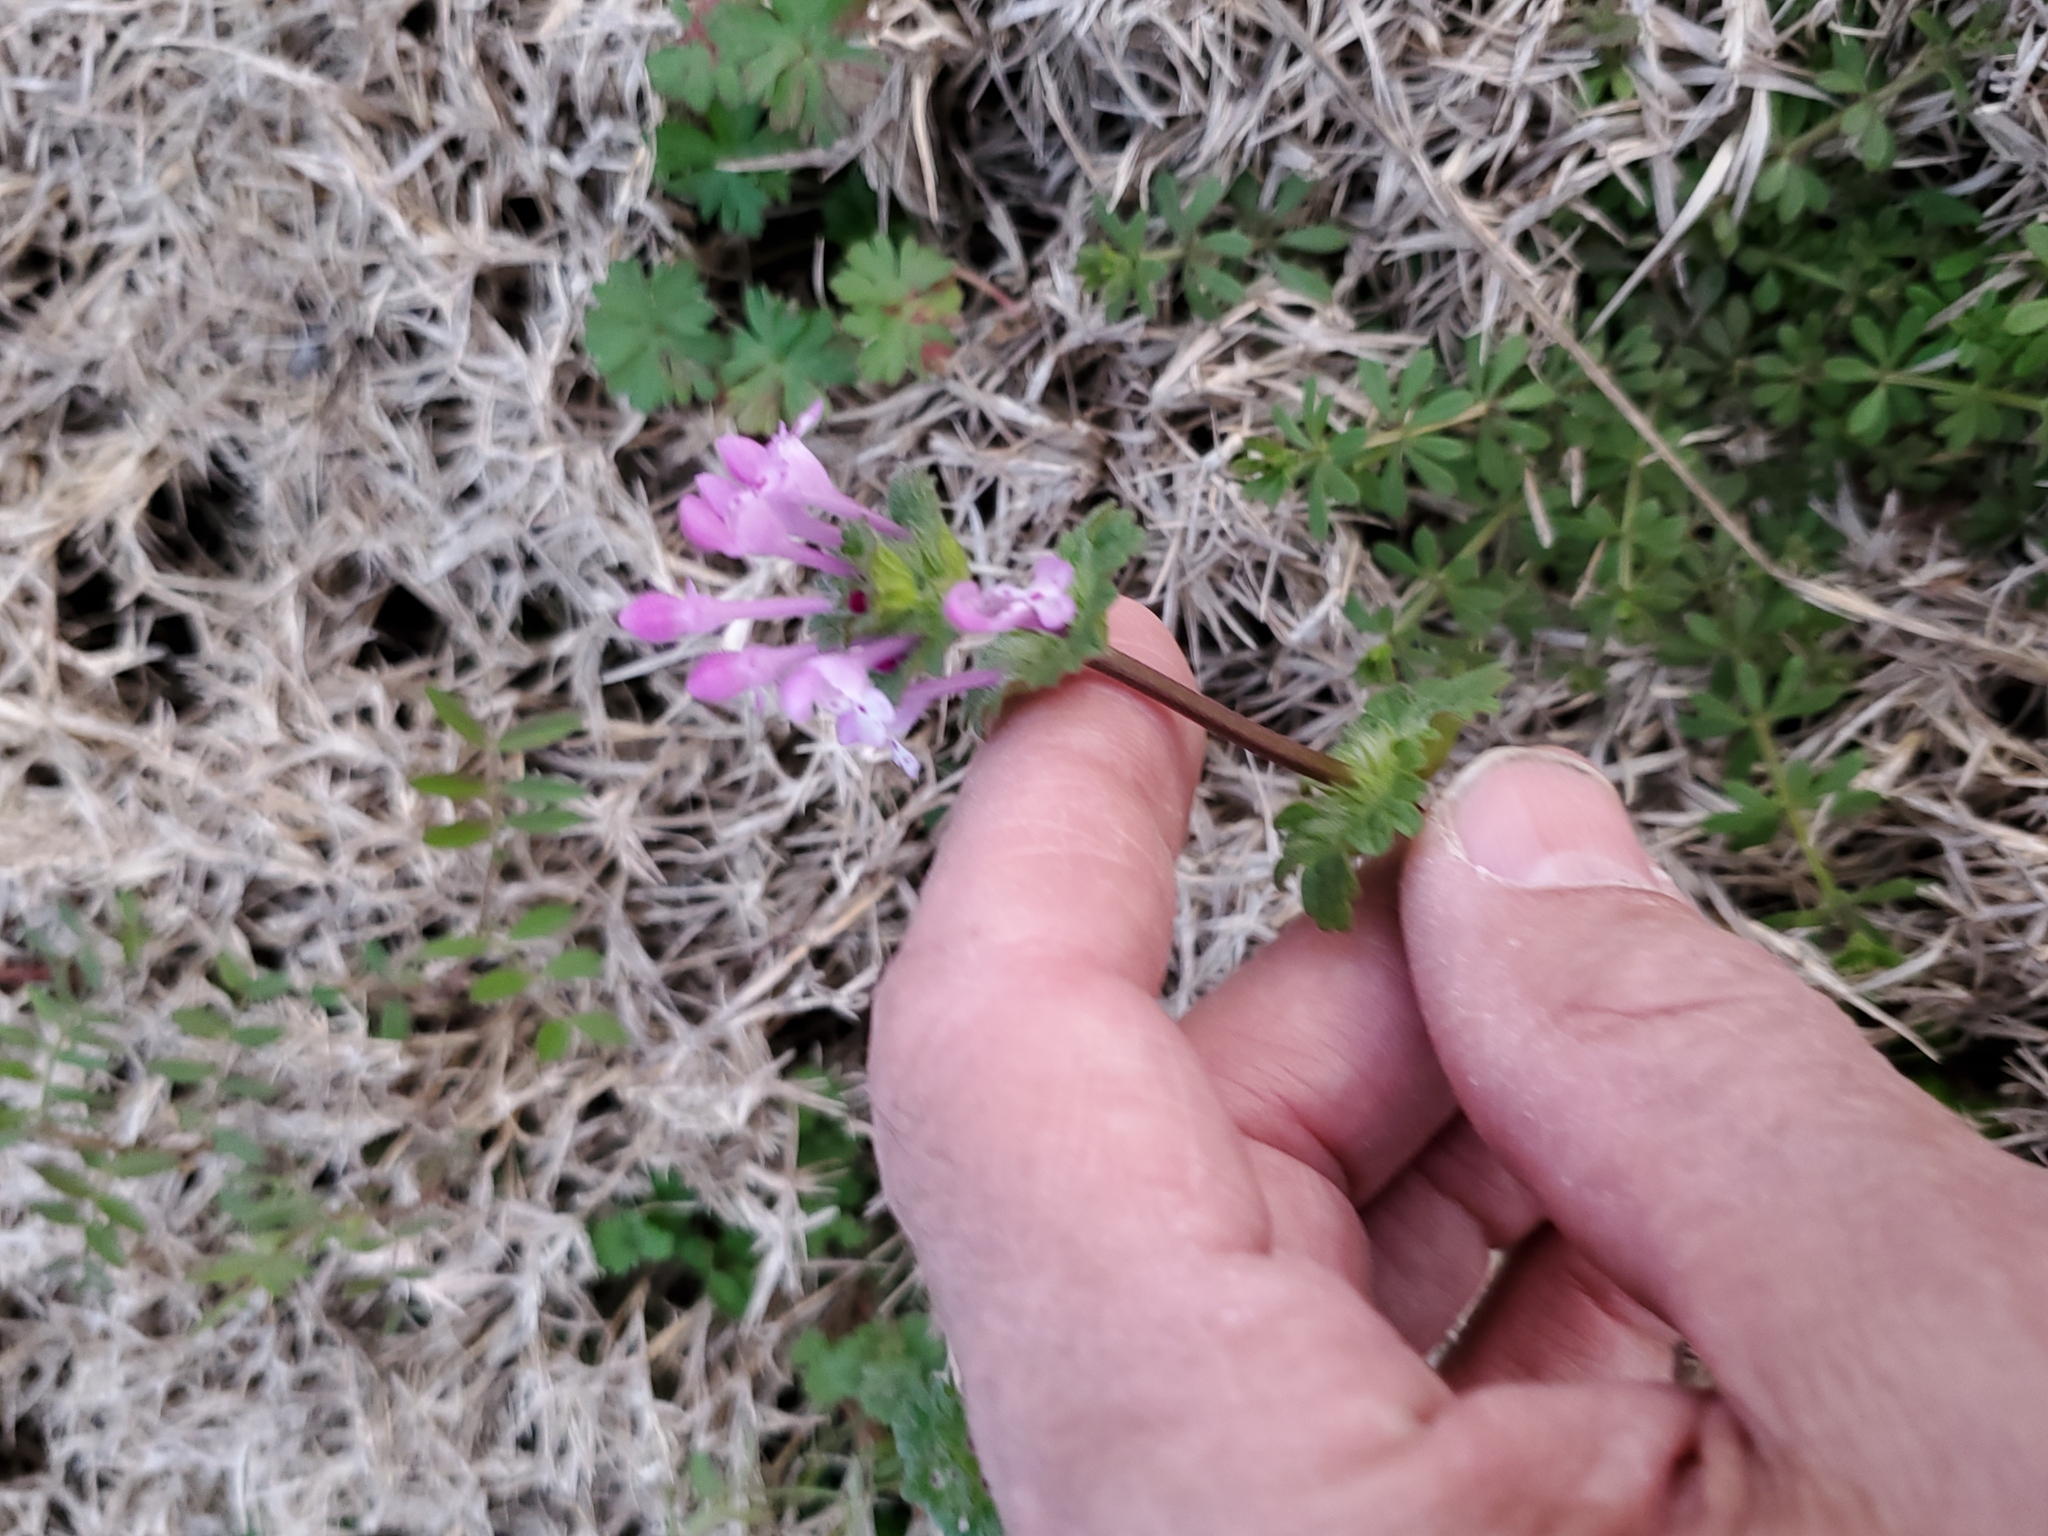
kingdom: Plantae
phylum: Tracheophyta
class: Magnoliopsida
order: Lamiales
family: Lamiaceae
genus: Lamium
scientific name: Lamium amplexicaule
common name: Henbit dead-nettle
